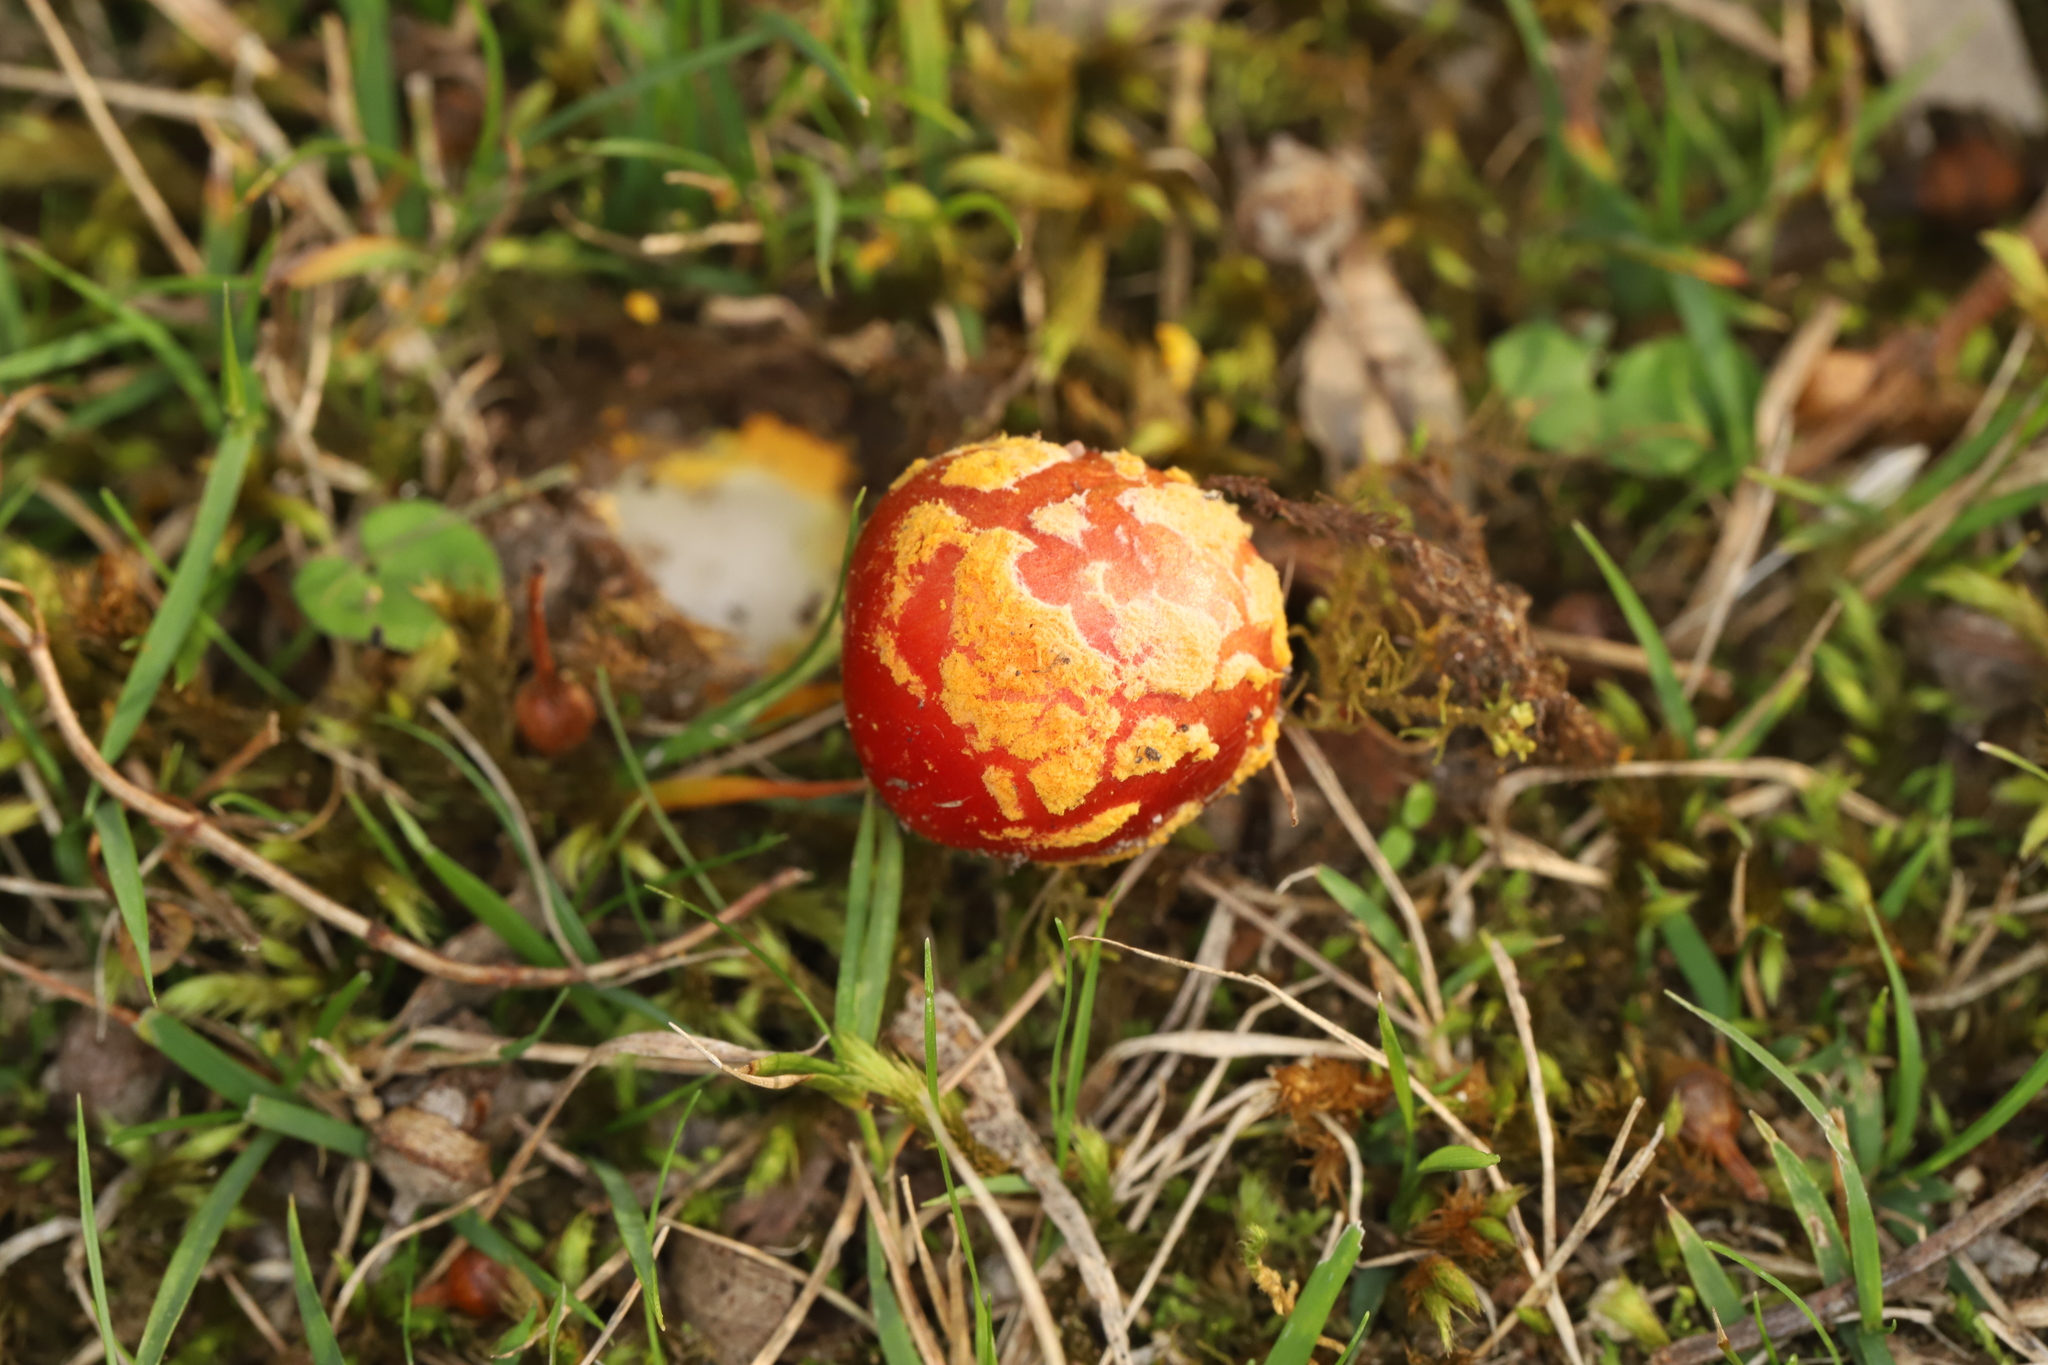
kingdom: Fungi
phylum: Basidiomycota
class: Agaricomycetes
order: Agaricales
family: Amanitaceae
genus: Amanita
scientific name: Amanita xanthocephala
